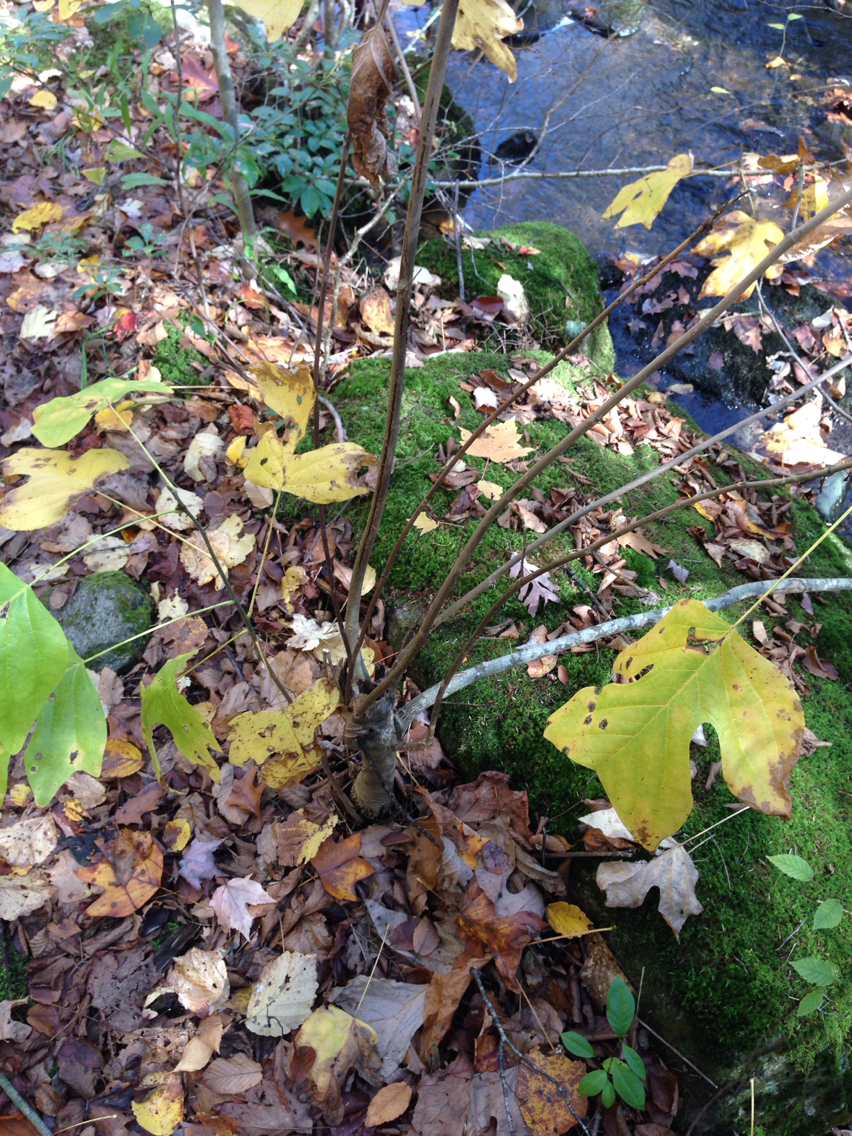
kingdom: Plantae
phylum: Tracheophyta
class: Magnoliopsida
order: Magnoliales
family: Magnoliaceae
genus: Liriodendron
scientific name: Liriodendron tulipifera
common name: Tulip tree
